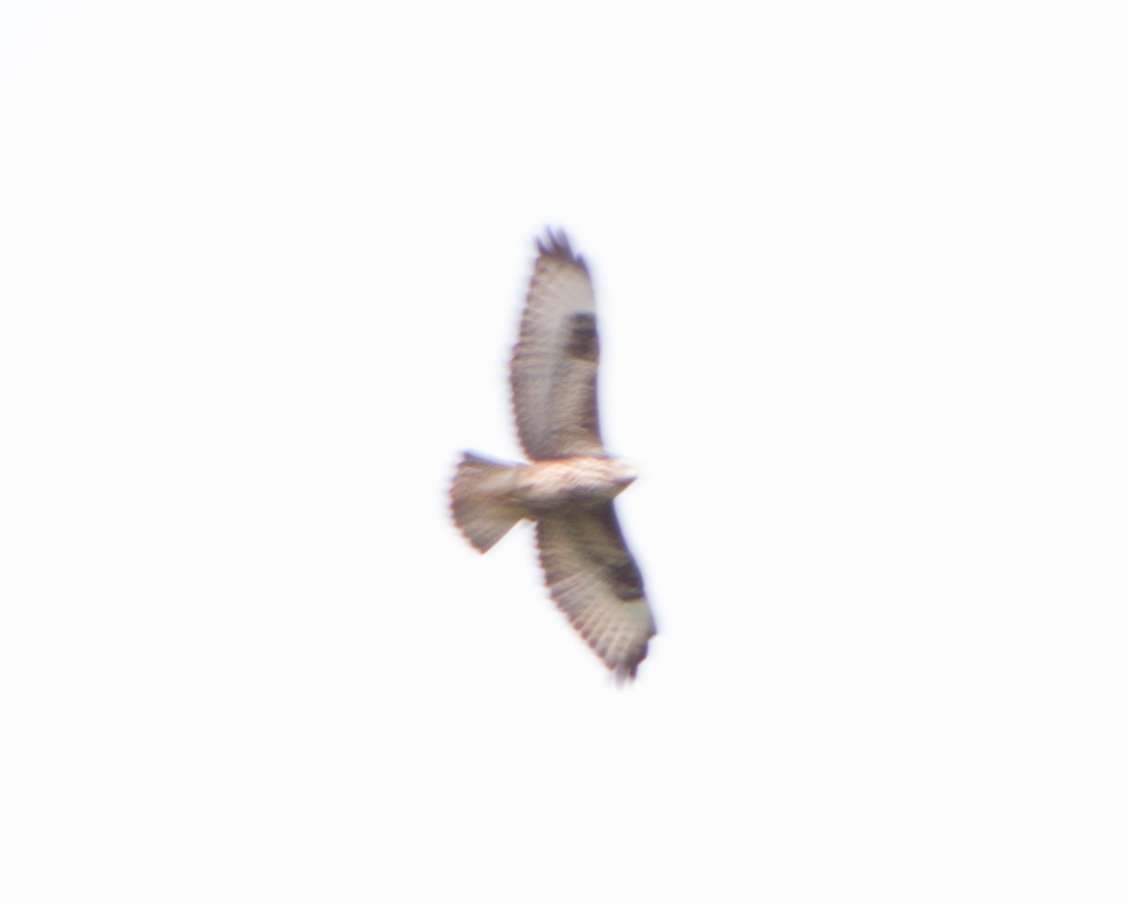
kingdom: Animalia
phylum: Chordata
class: Aves
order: Accipitriformes
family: Accipitridae
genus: Buteo
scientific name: Buteo buteo
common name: Common buzzard
